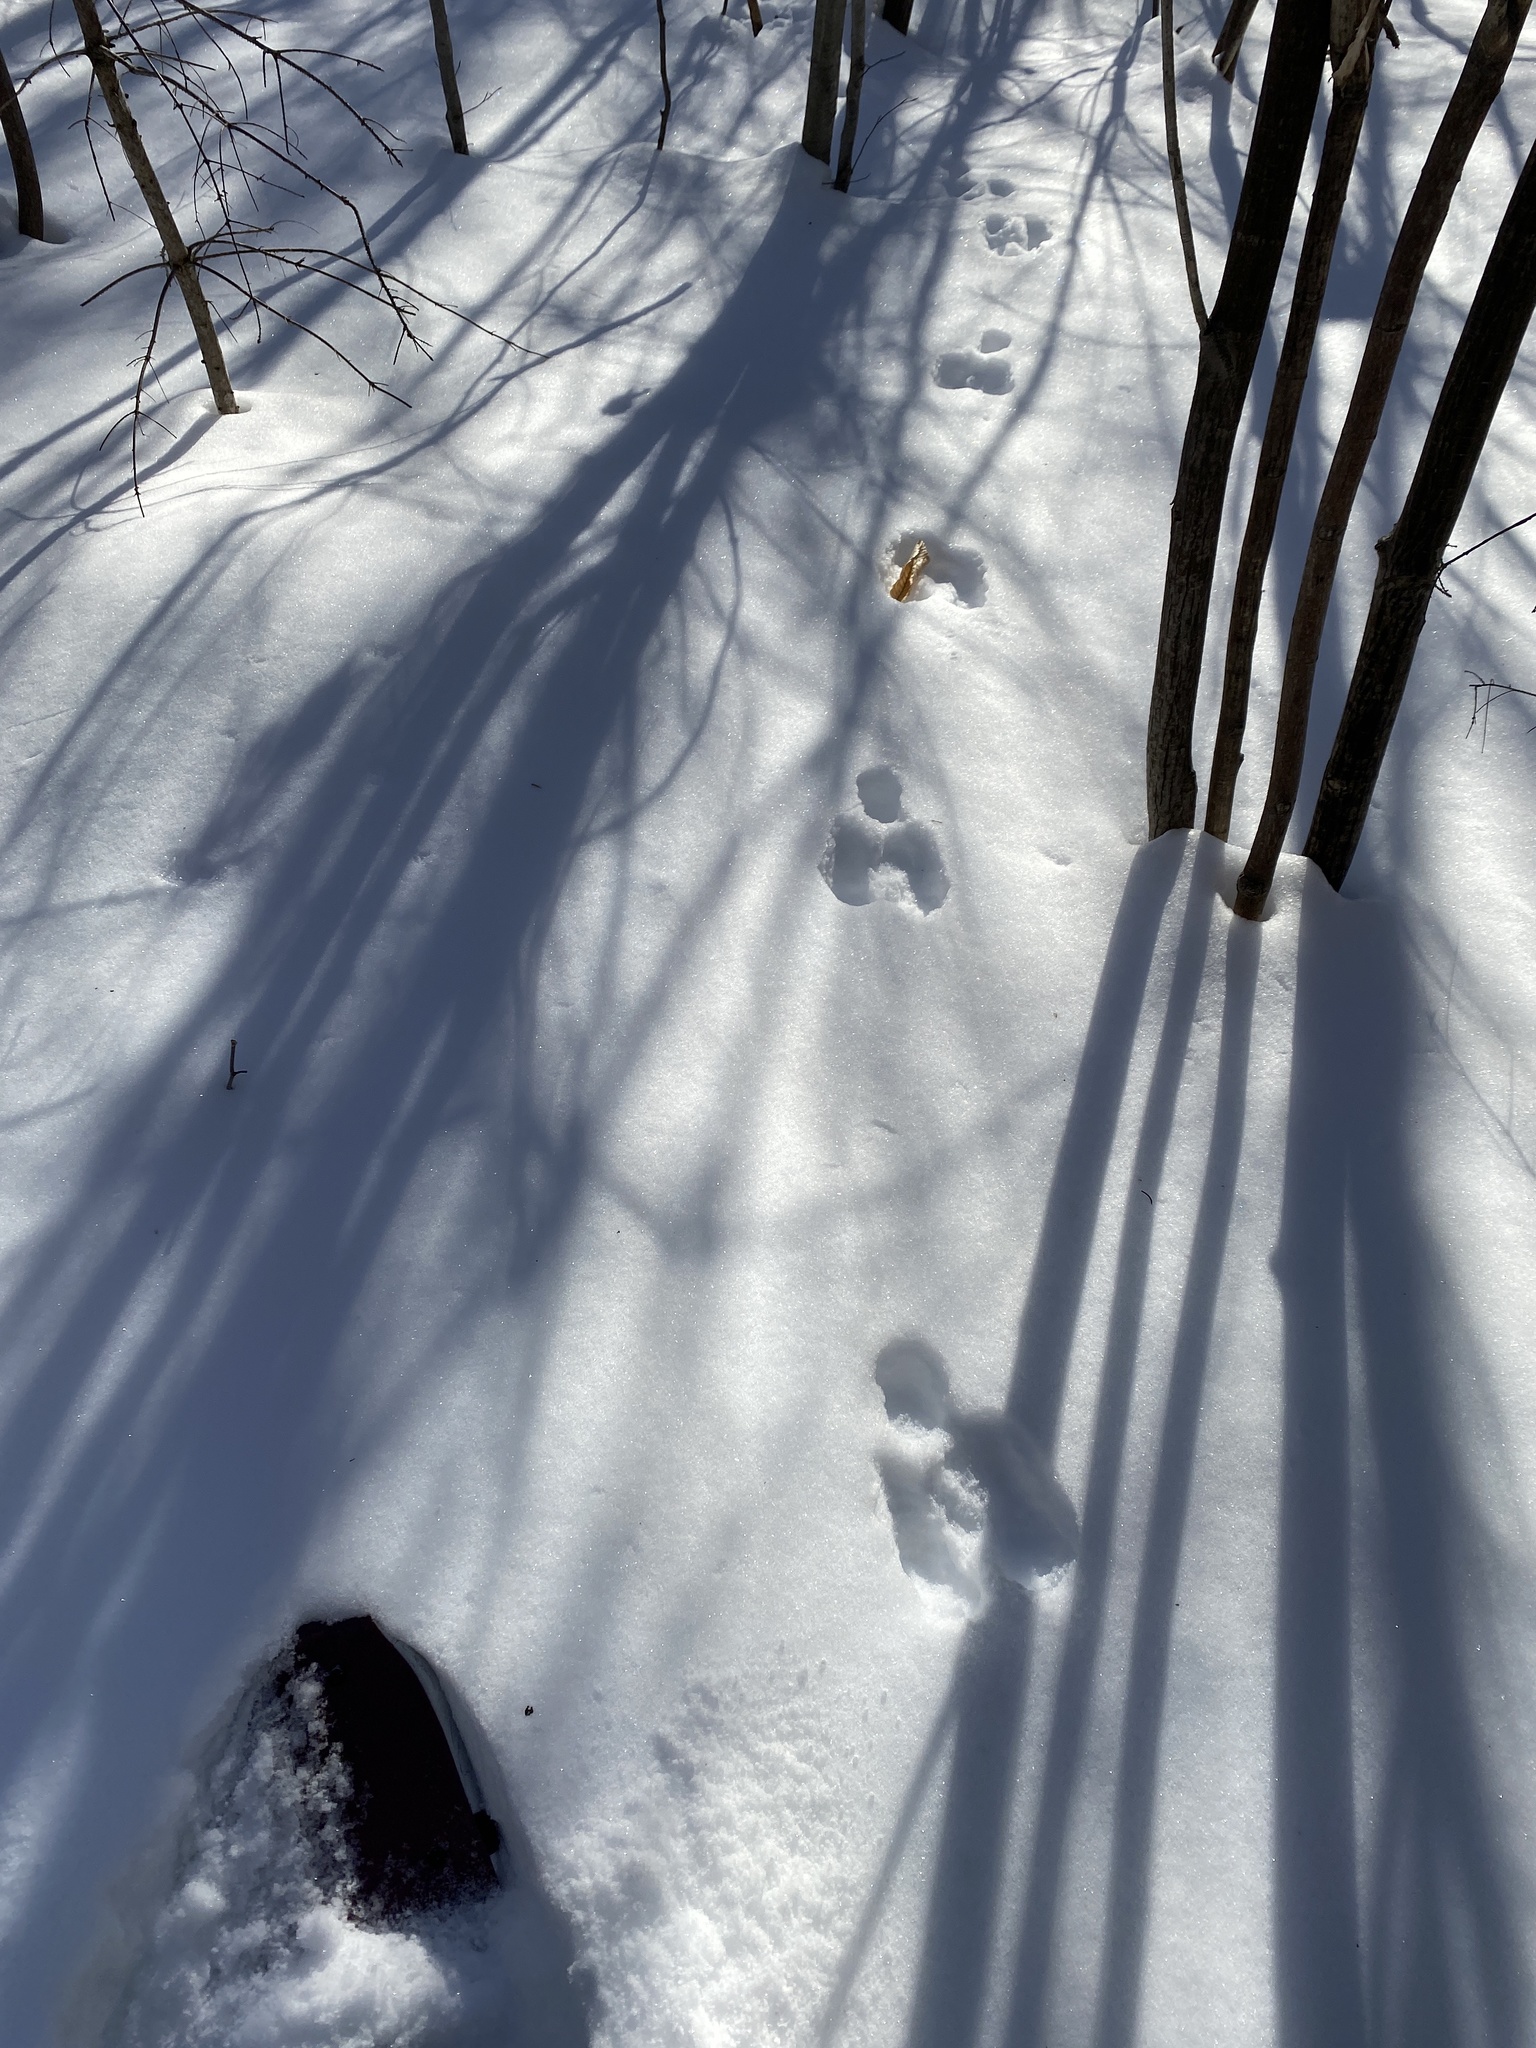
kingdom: Animalia
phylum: Chordata
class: Mammalia
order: Lagomorpha
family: Leporidae
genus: Lepus
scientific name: Lepus americanus
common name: Snowshoe hare
